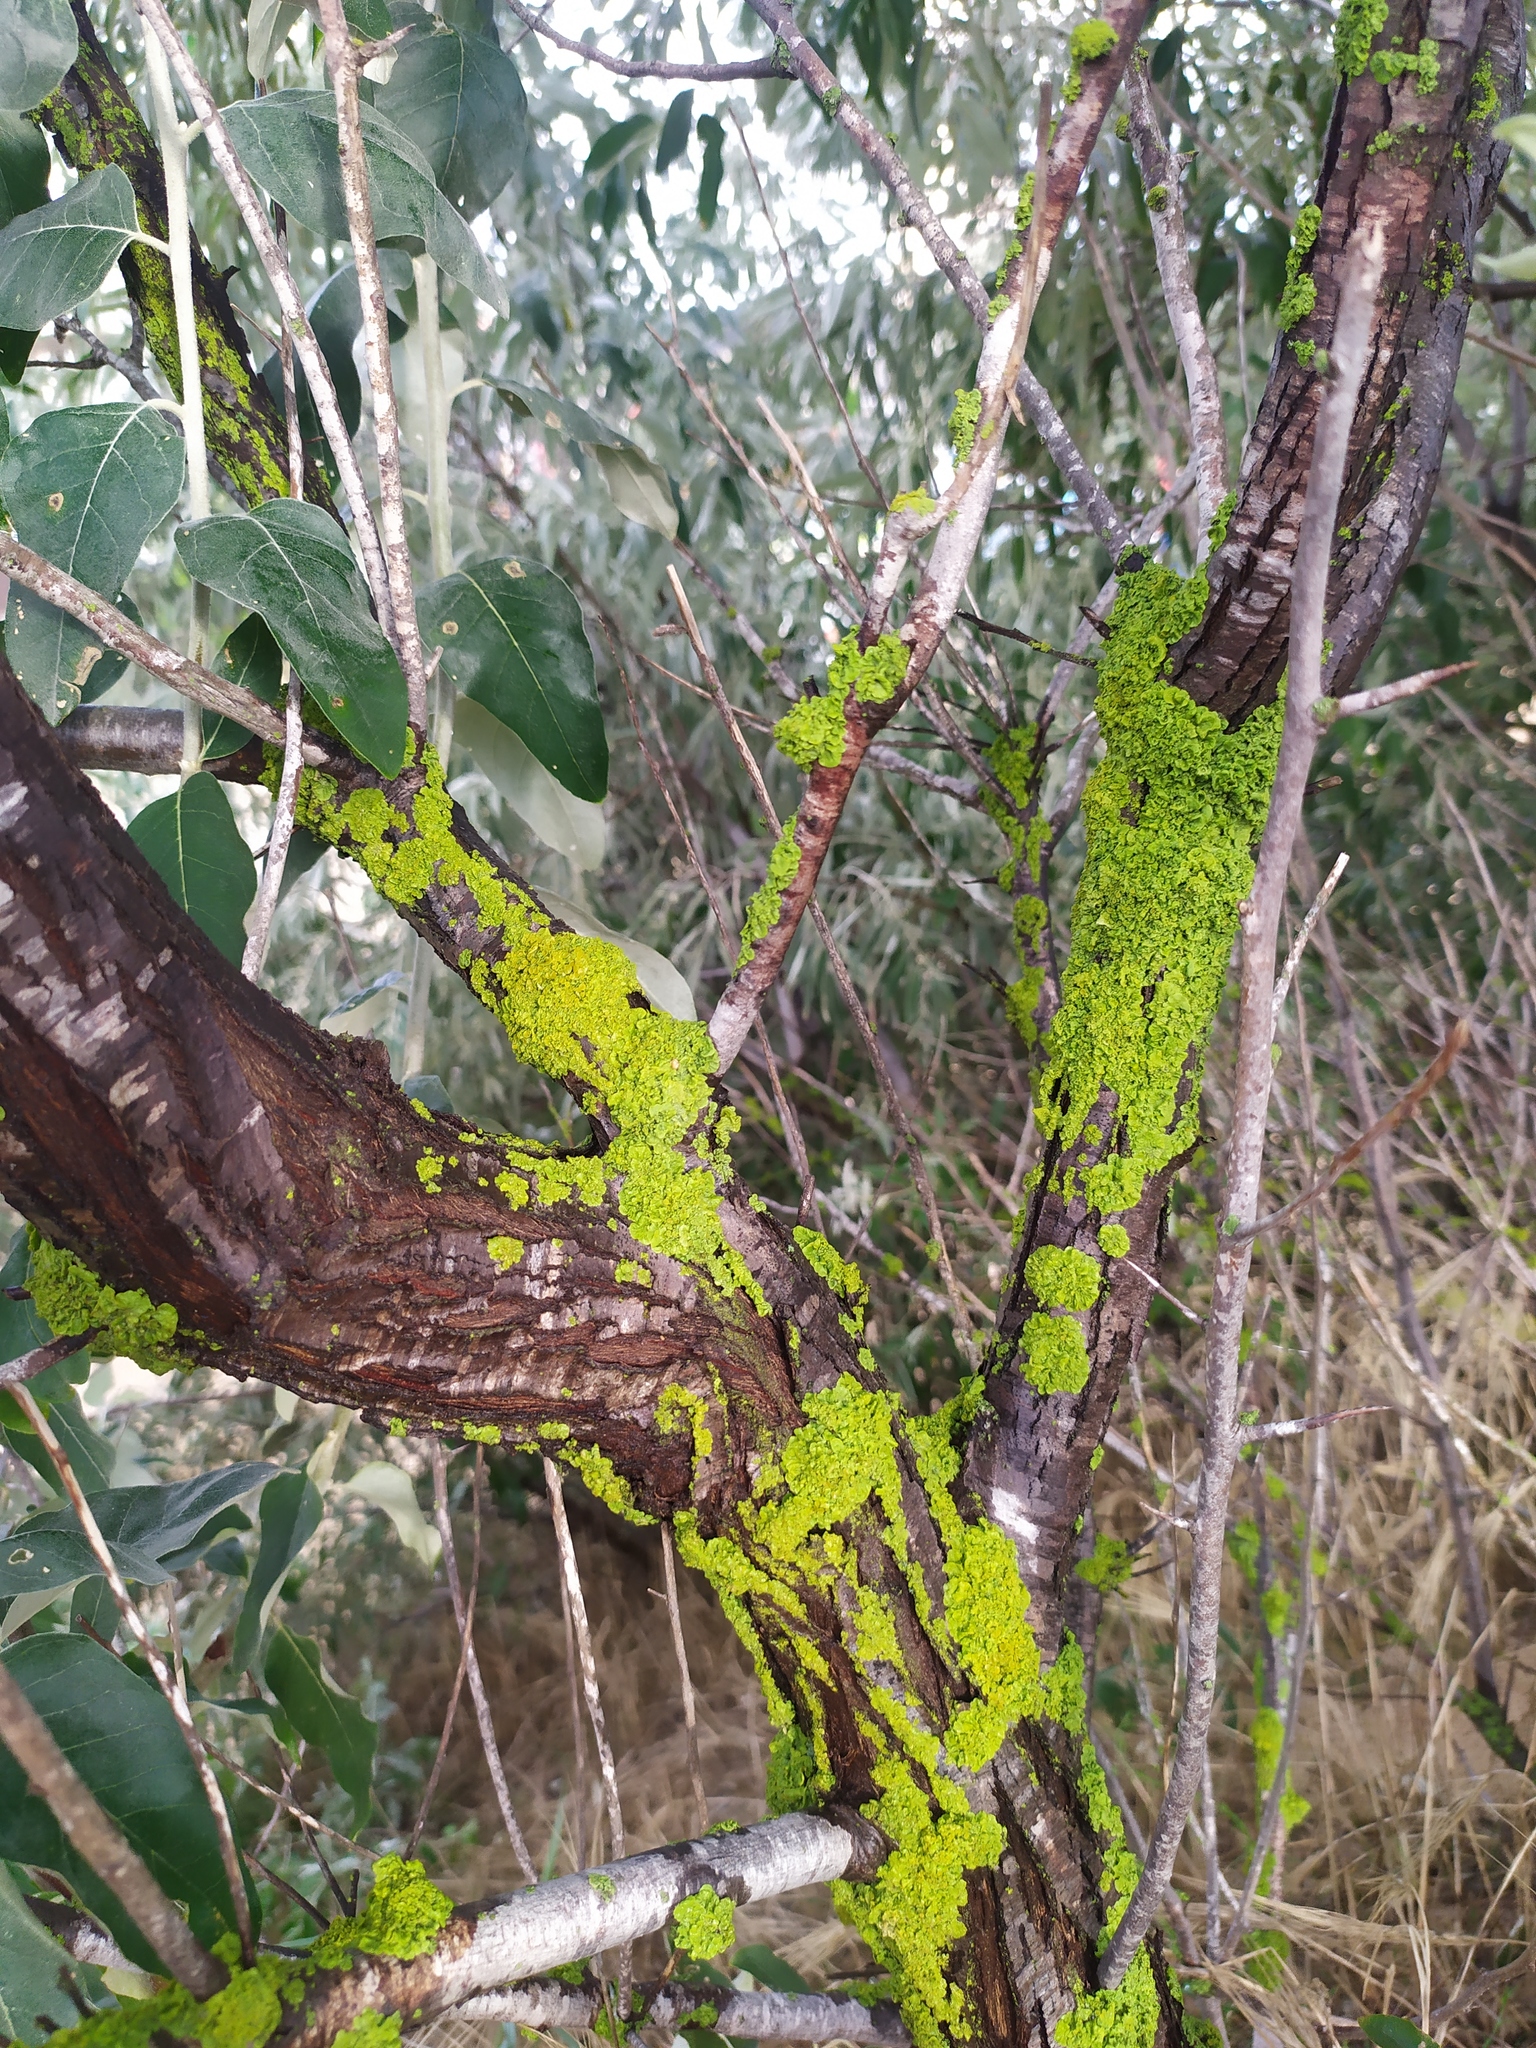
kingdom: Fungi
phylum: Ascomycota
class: Lecanoromycetes
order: Teloschistales
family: Teloschistaceae
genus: Xanthoria
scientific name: Xanthoria parietina
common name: Common orange lichen
